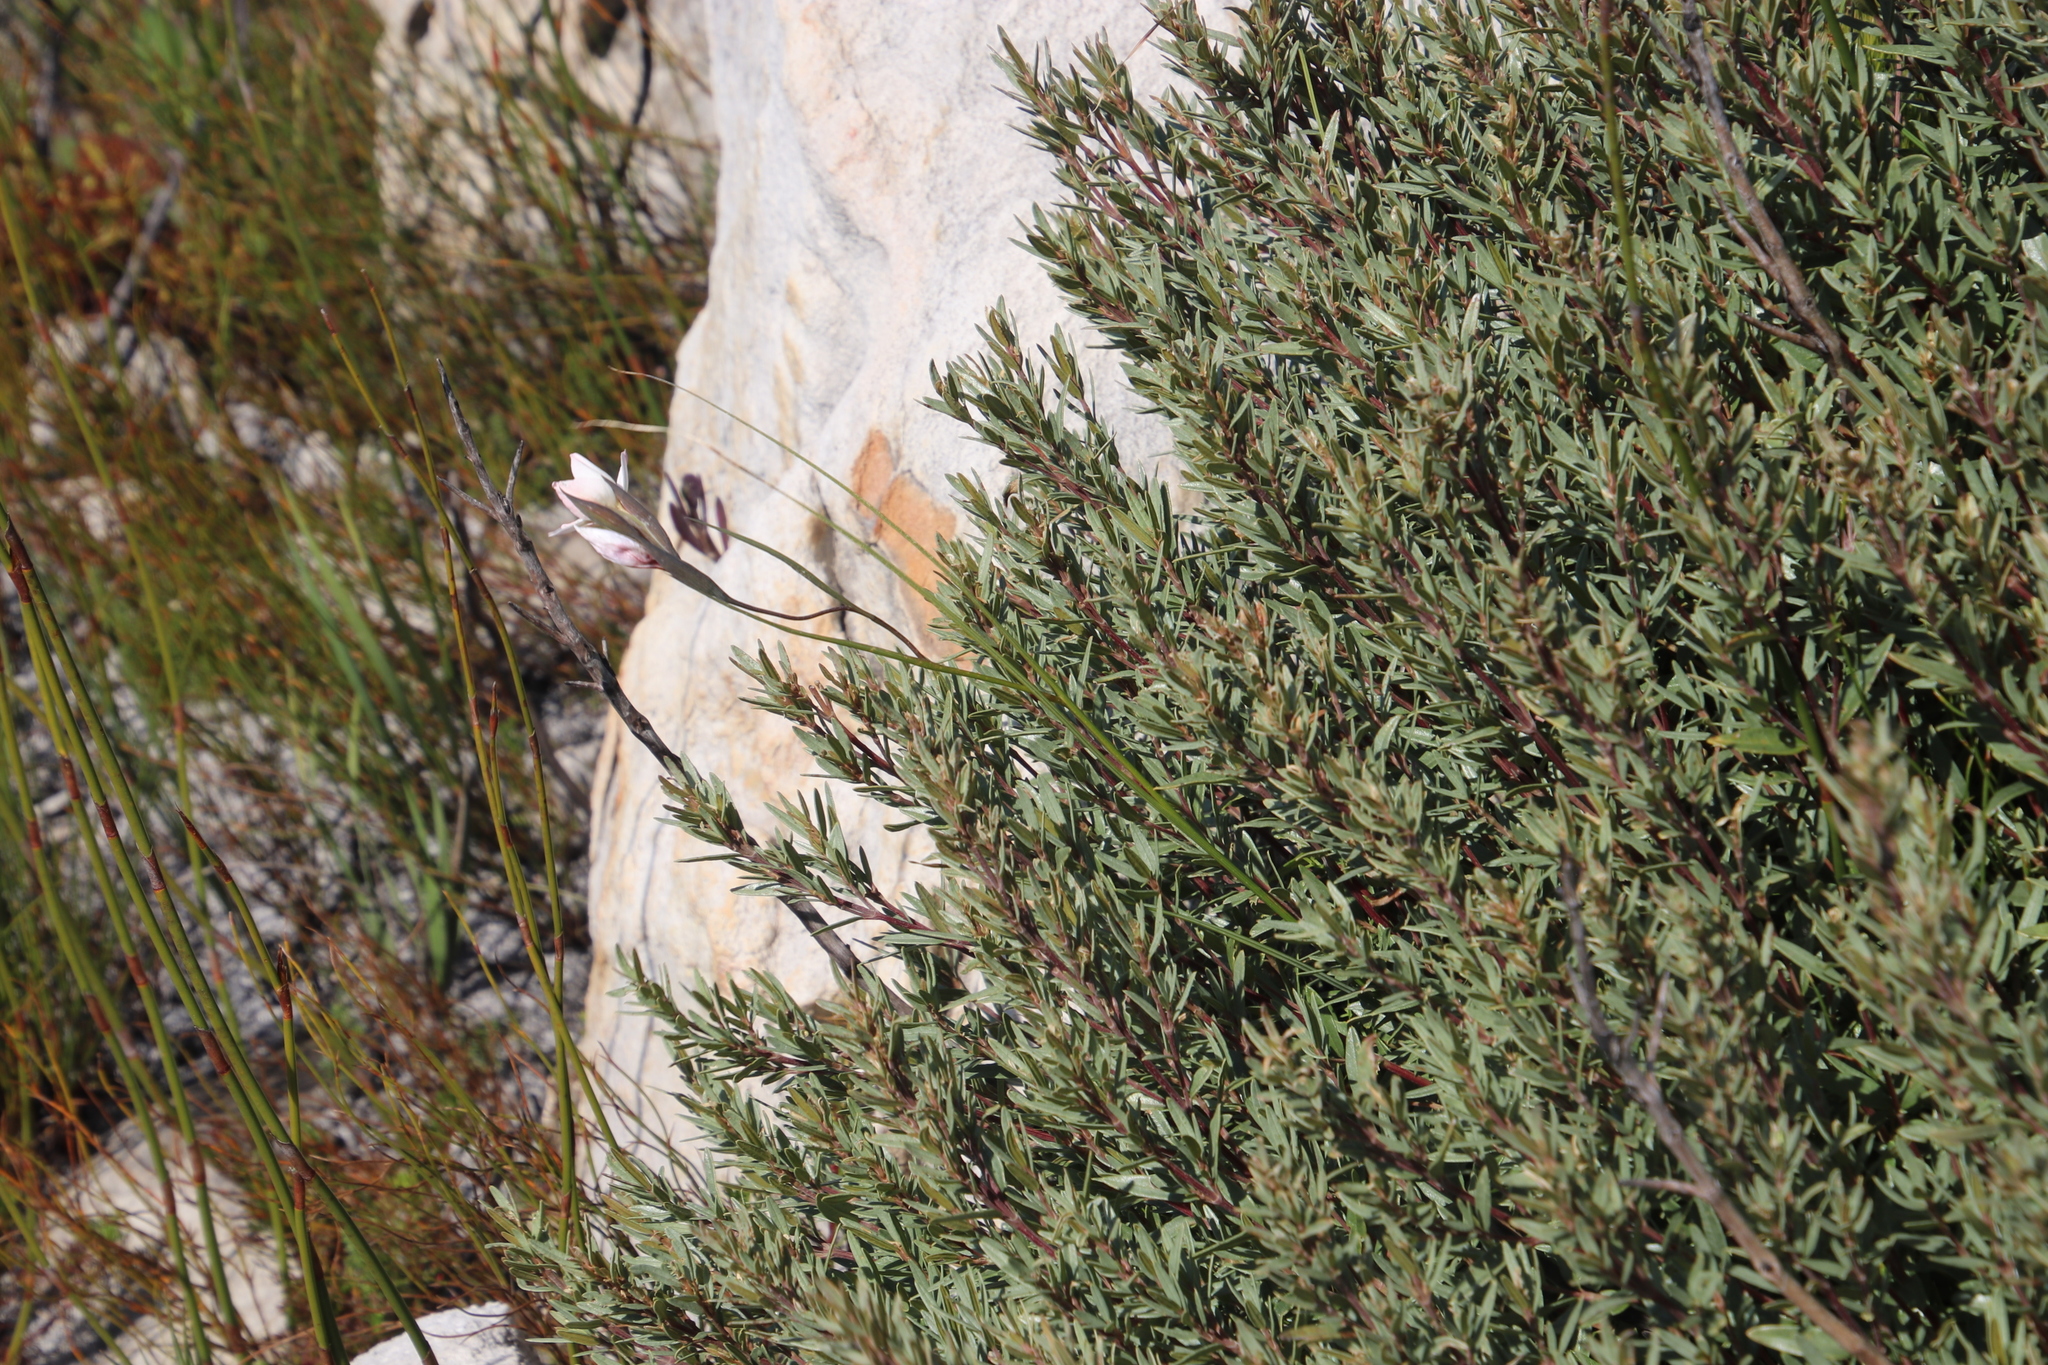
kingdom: Plantae
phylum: Tracheophyta
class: Liliopsida
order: Asparagales
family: Iridaceae
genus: Gladiolus
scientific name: Gladiolus debilis
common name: Painted-lady
